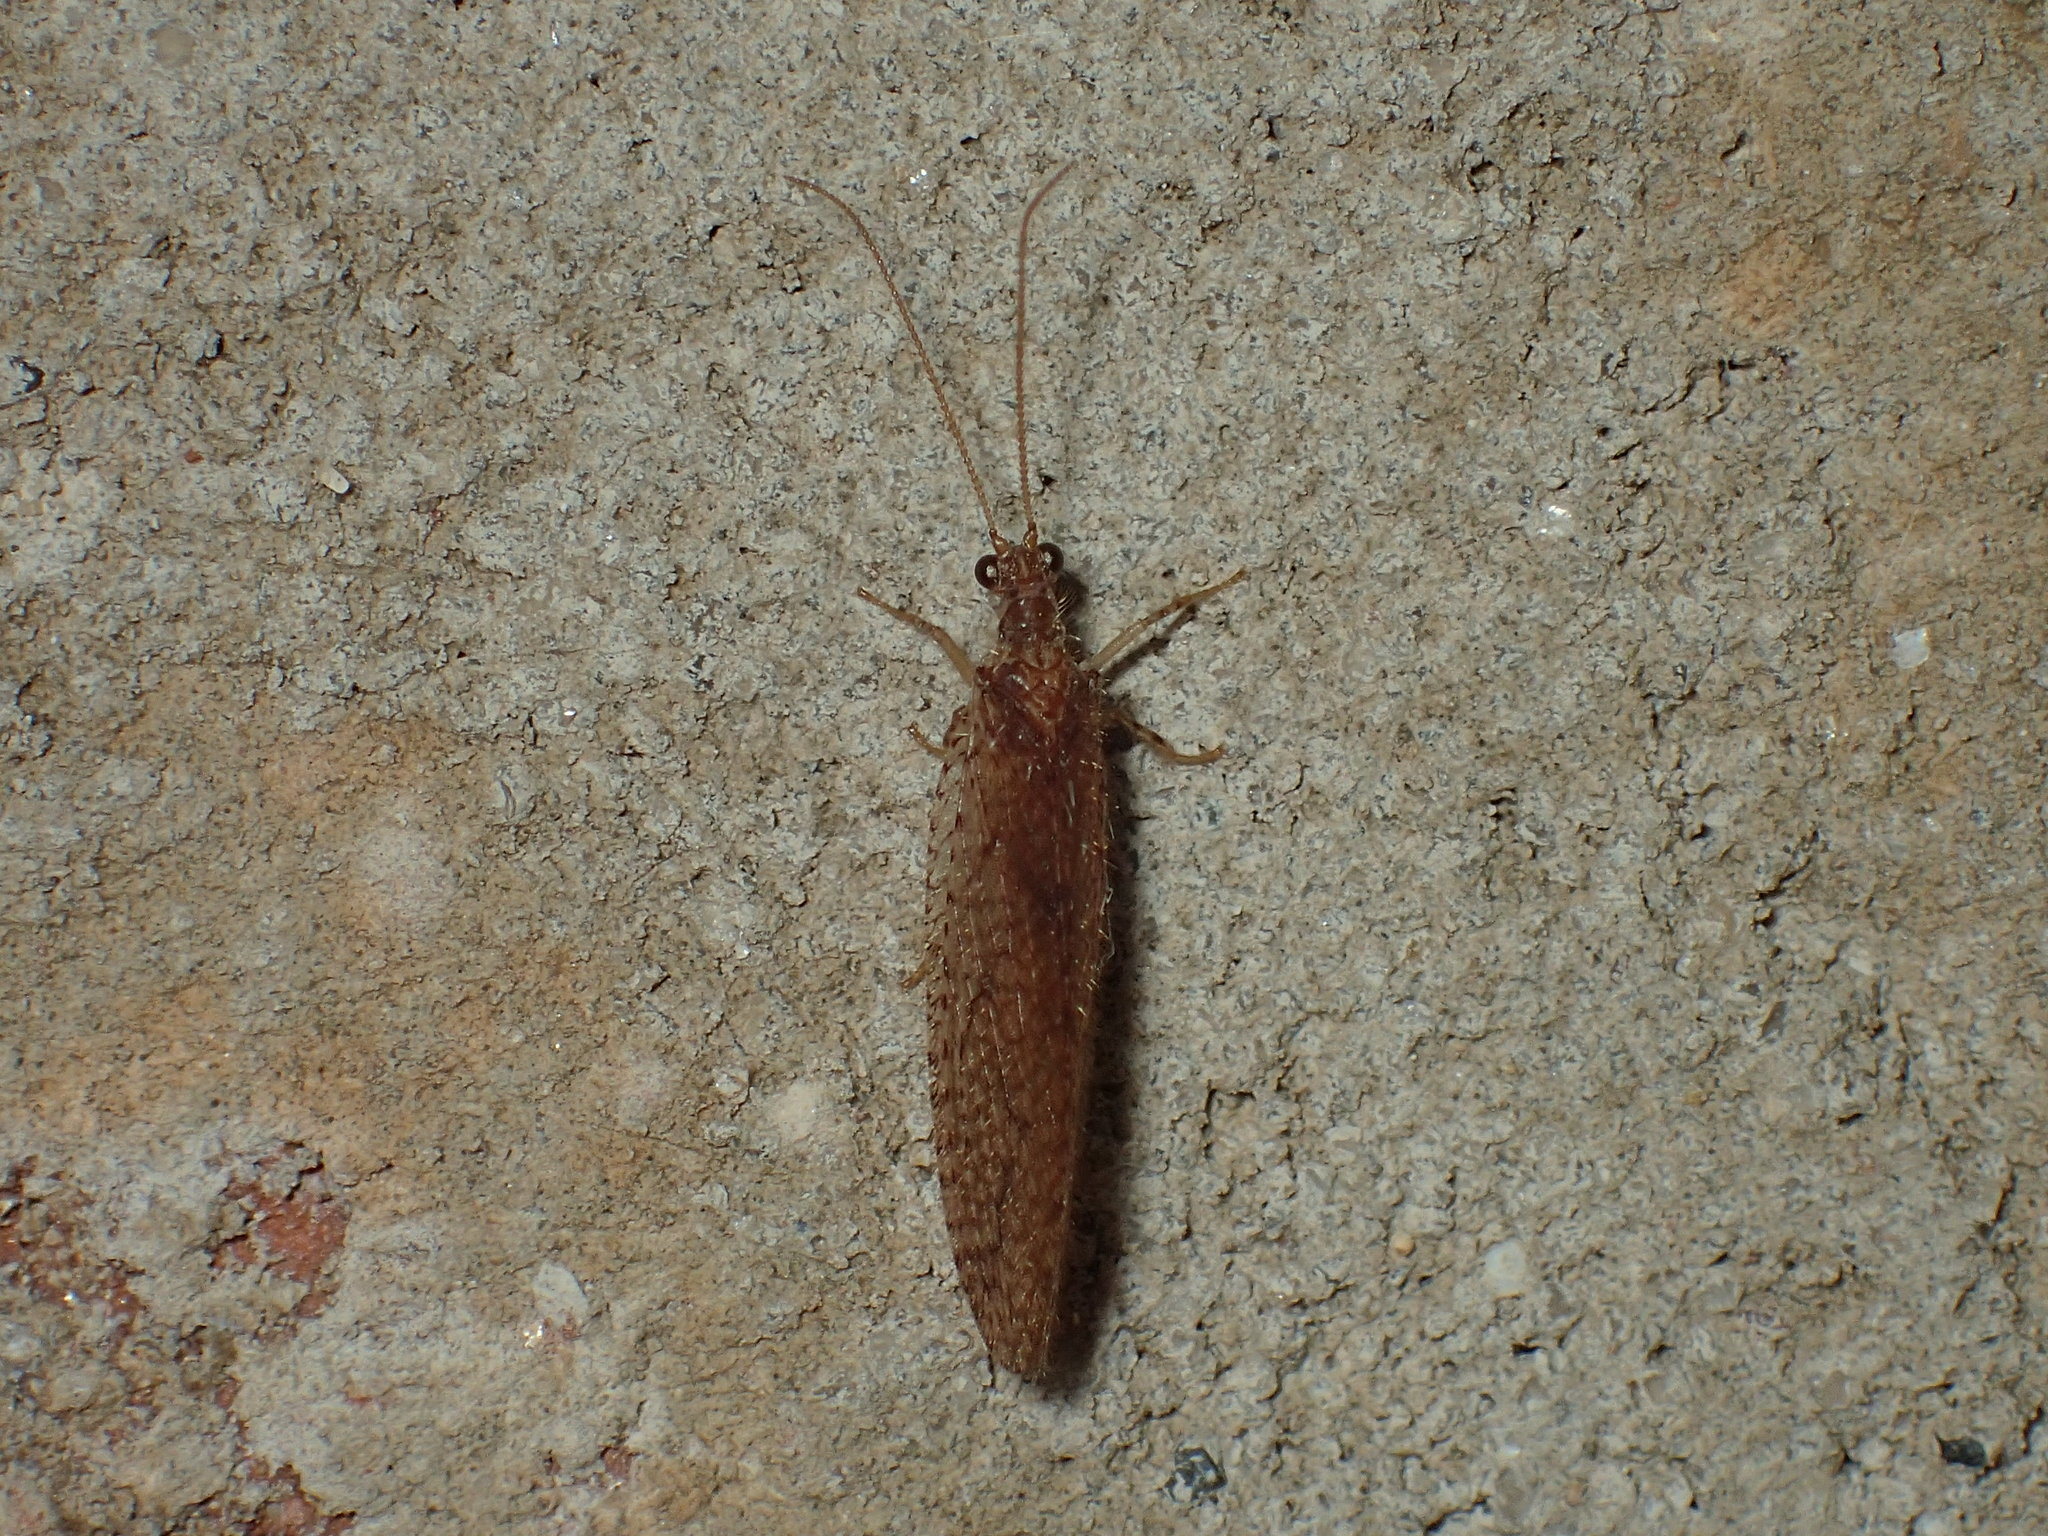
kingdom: Animalia
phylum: Arthropoda
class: Insecta
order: Neuroptera
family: Hemerobiidae
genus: Micromus
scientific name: Micromus posticus
